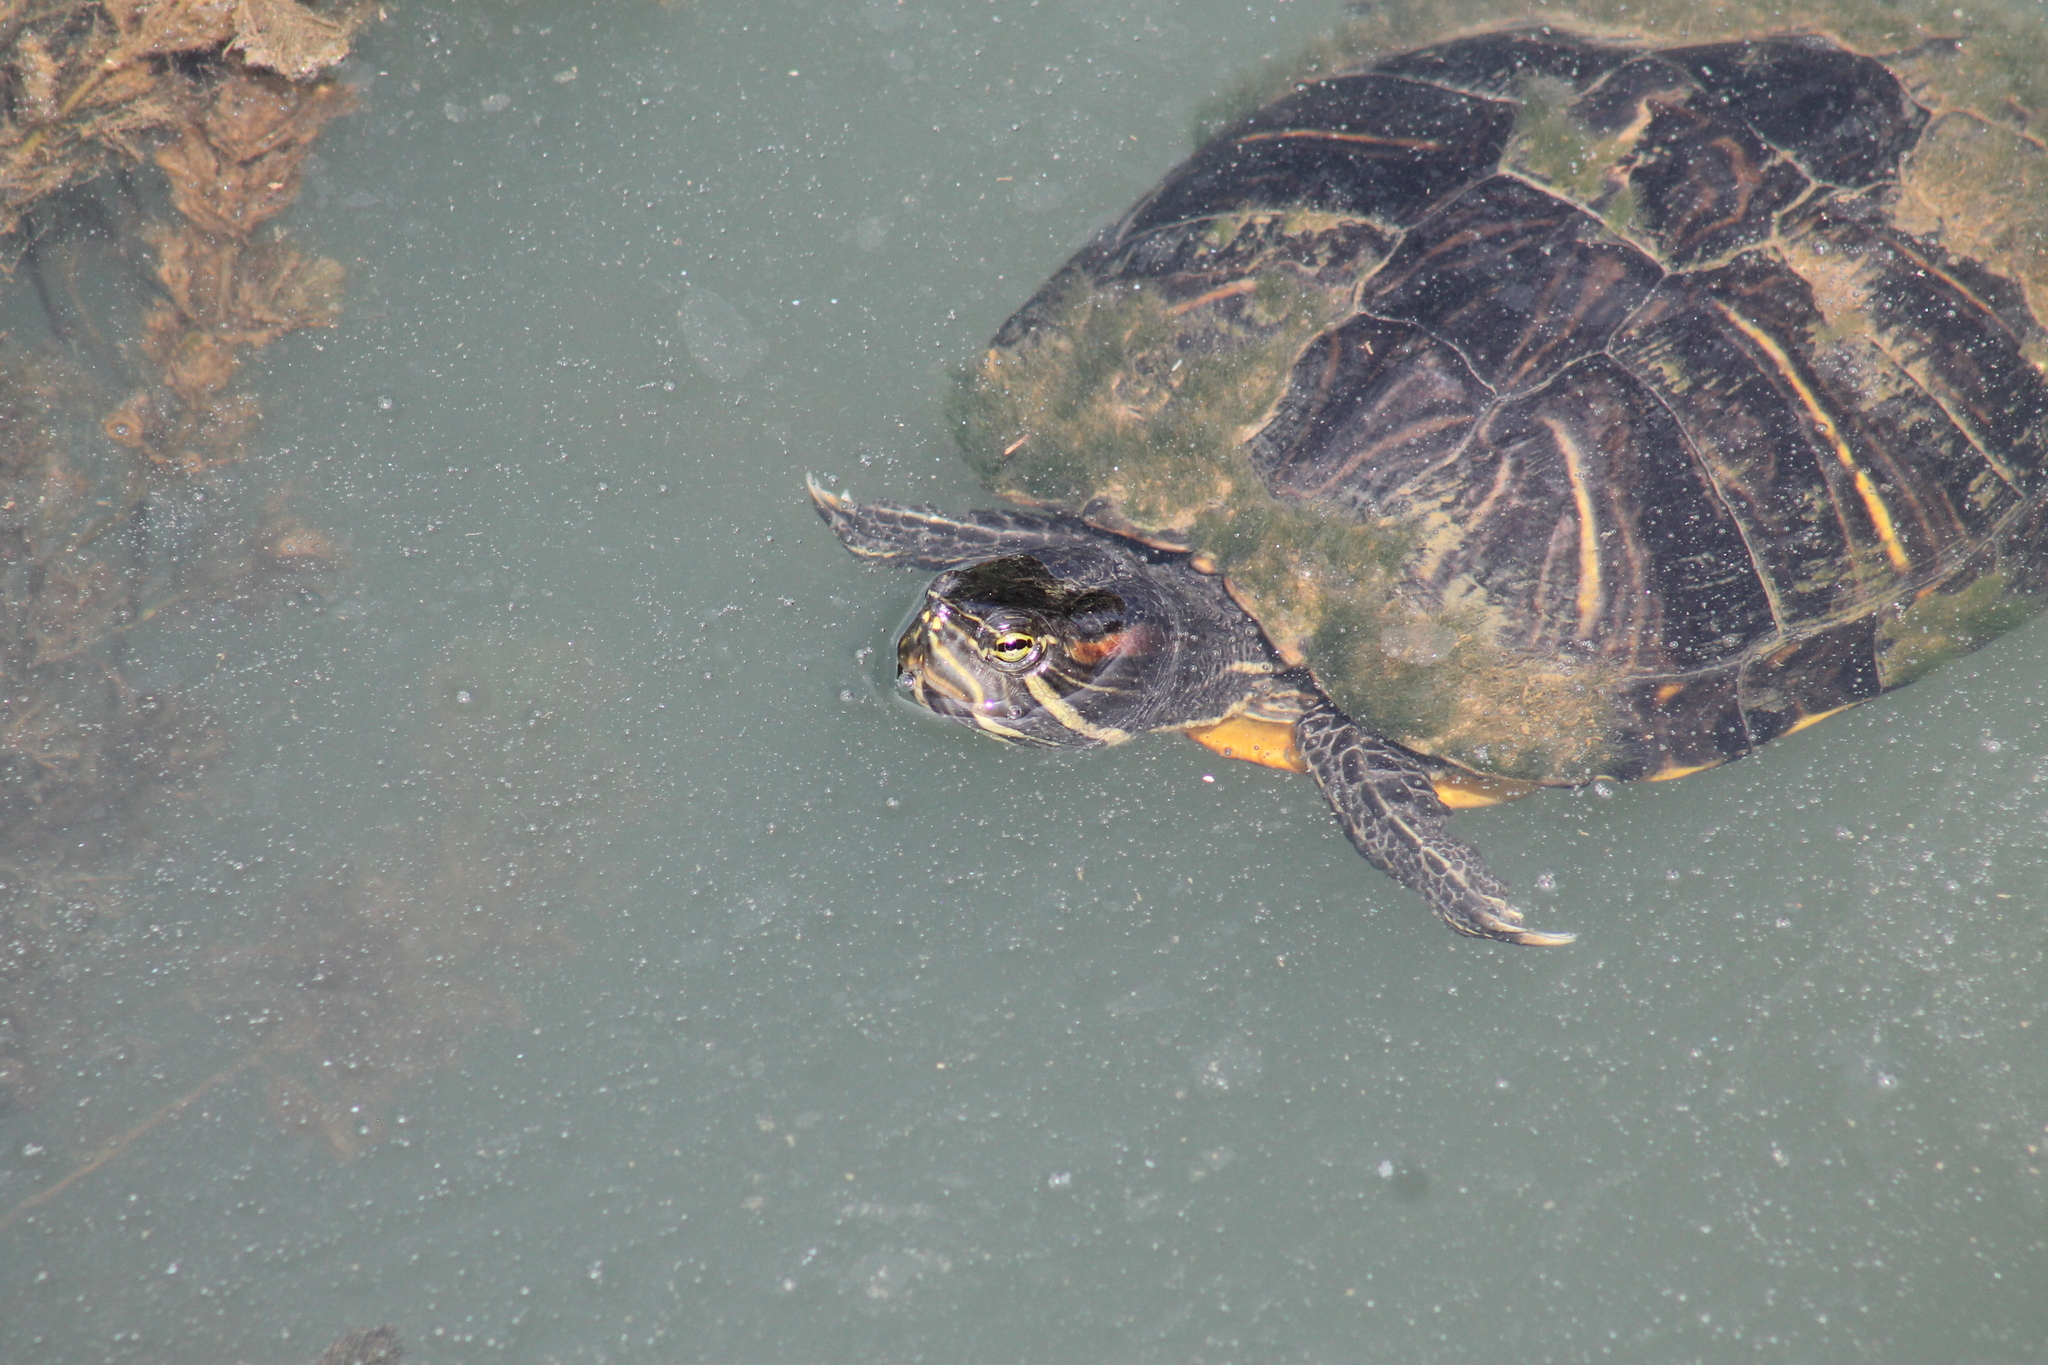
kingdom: Animalia
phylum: Chordata
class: Testudines
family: Emydidae
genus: Trachemys
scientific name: Trachemys scripta
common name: Slider
